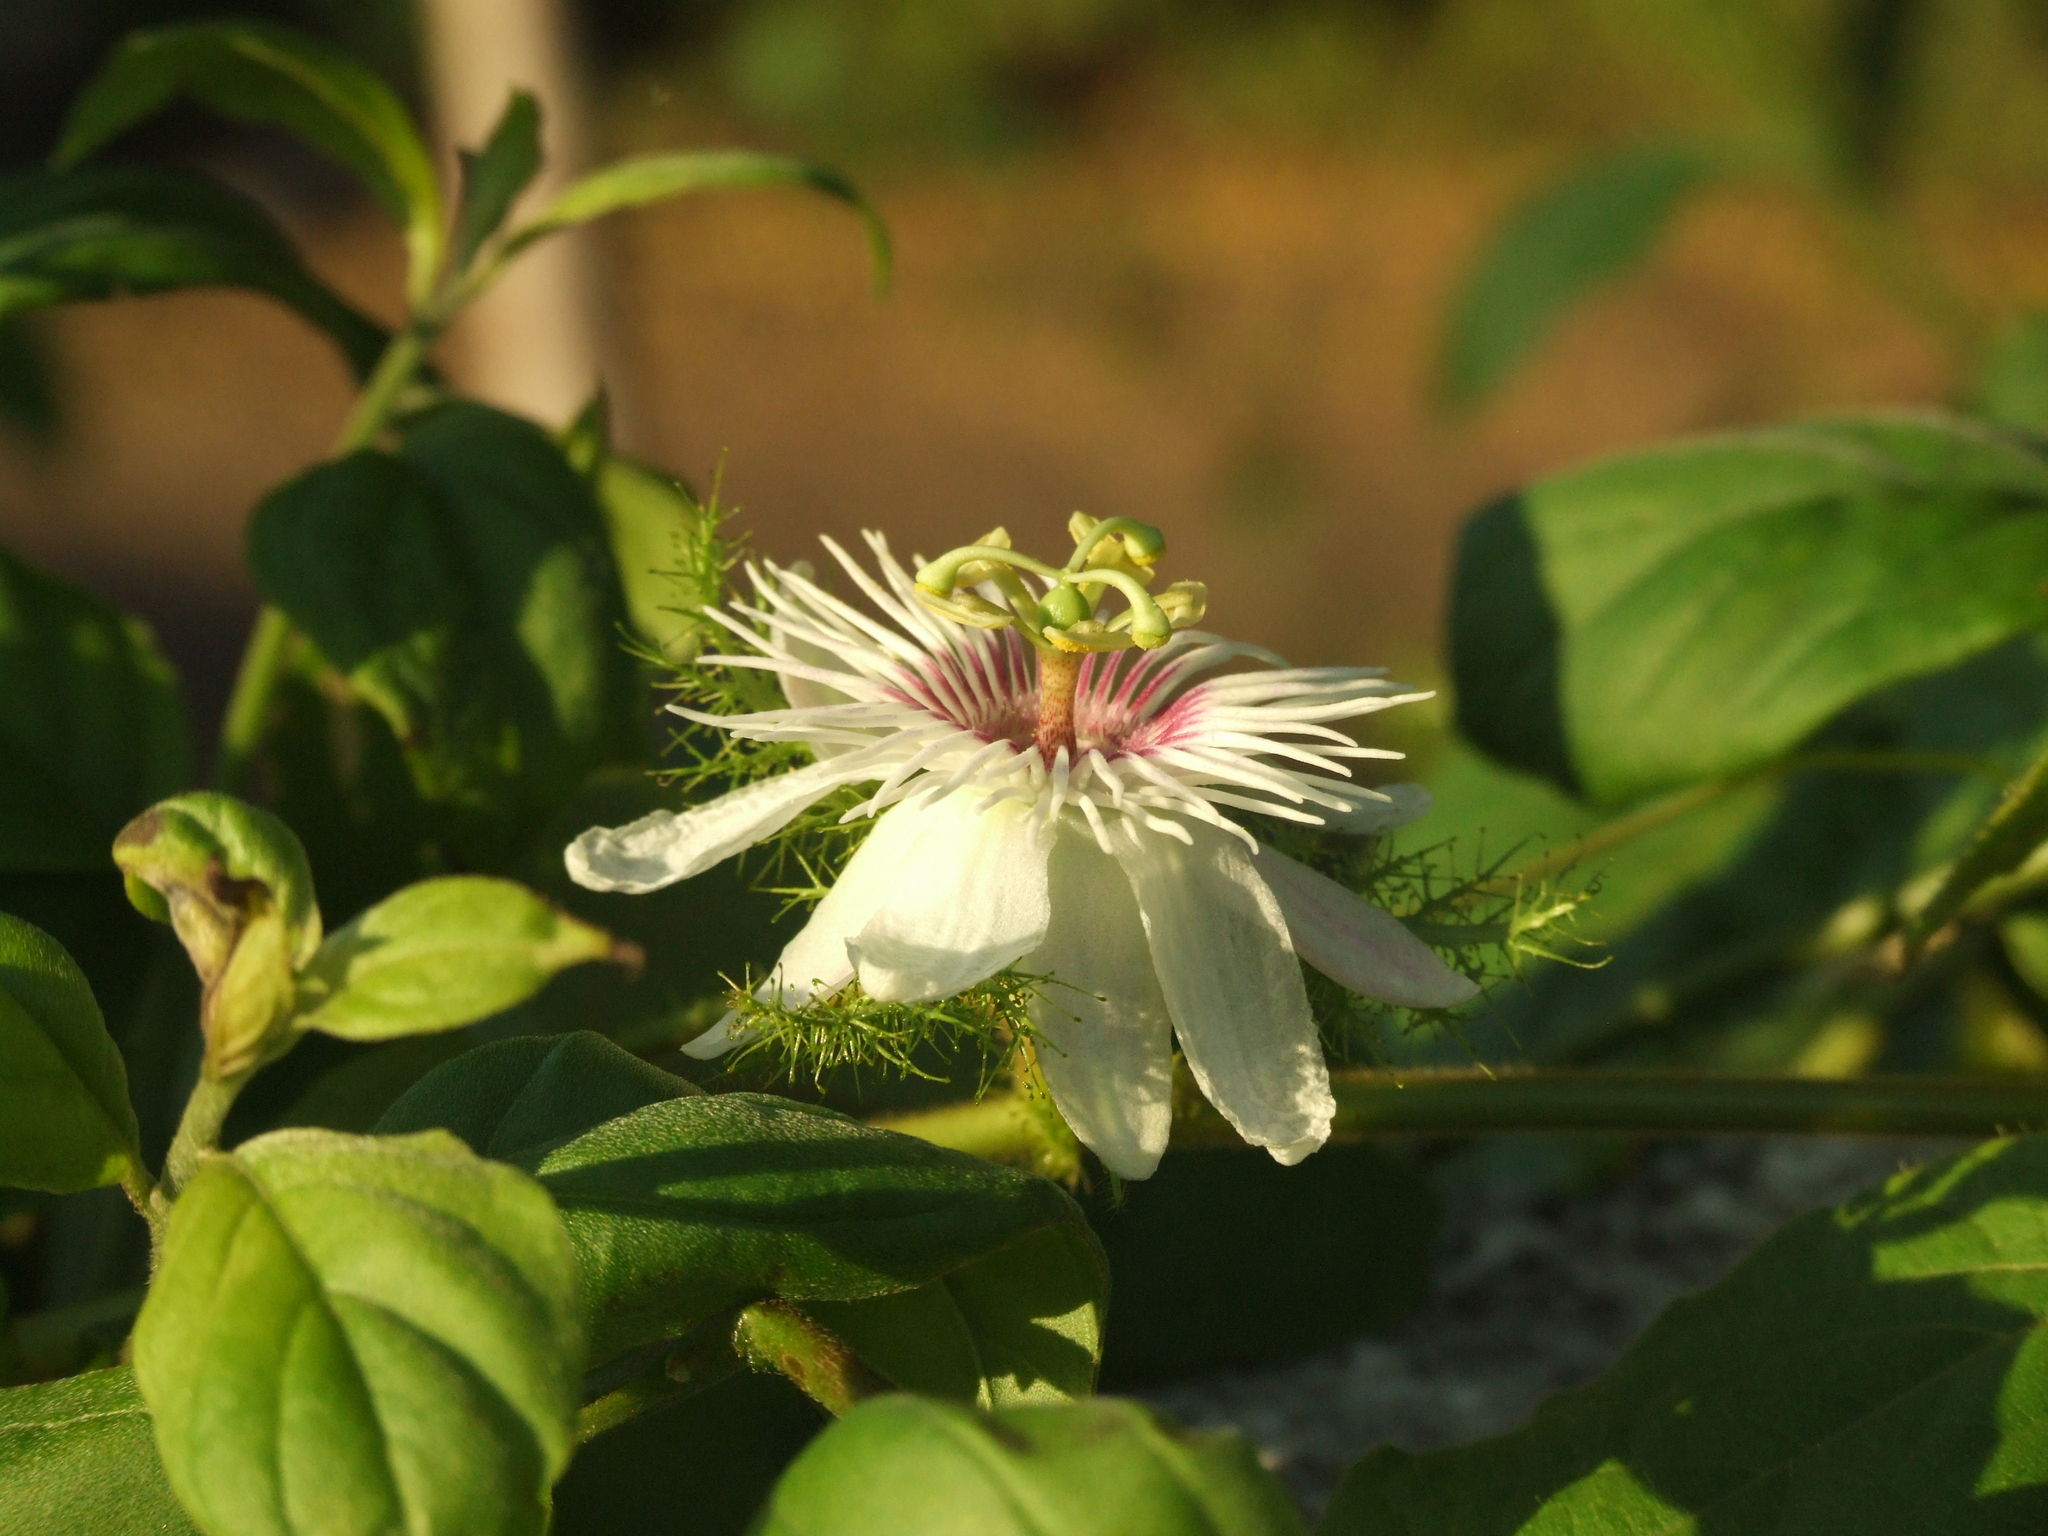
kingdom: Plantae
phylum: Tracheophyta
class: Magnoliopsida
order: Malpighiales
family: Passifloraceae
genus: Passiflora
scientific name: Passiflora vesicaria
